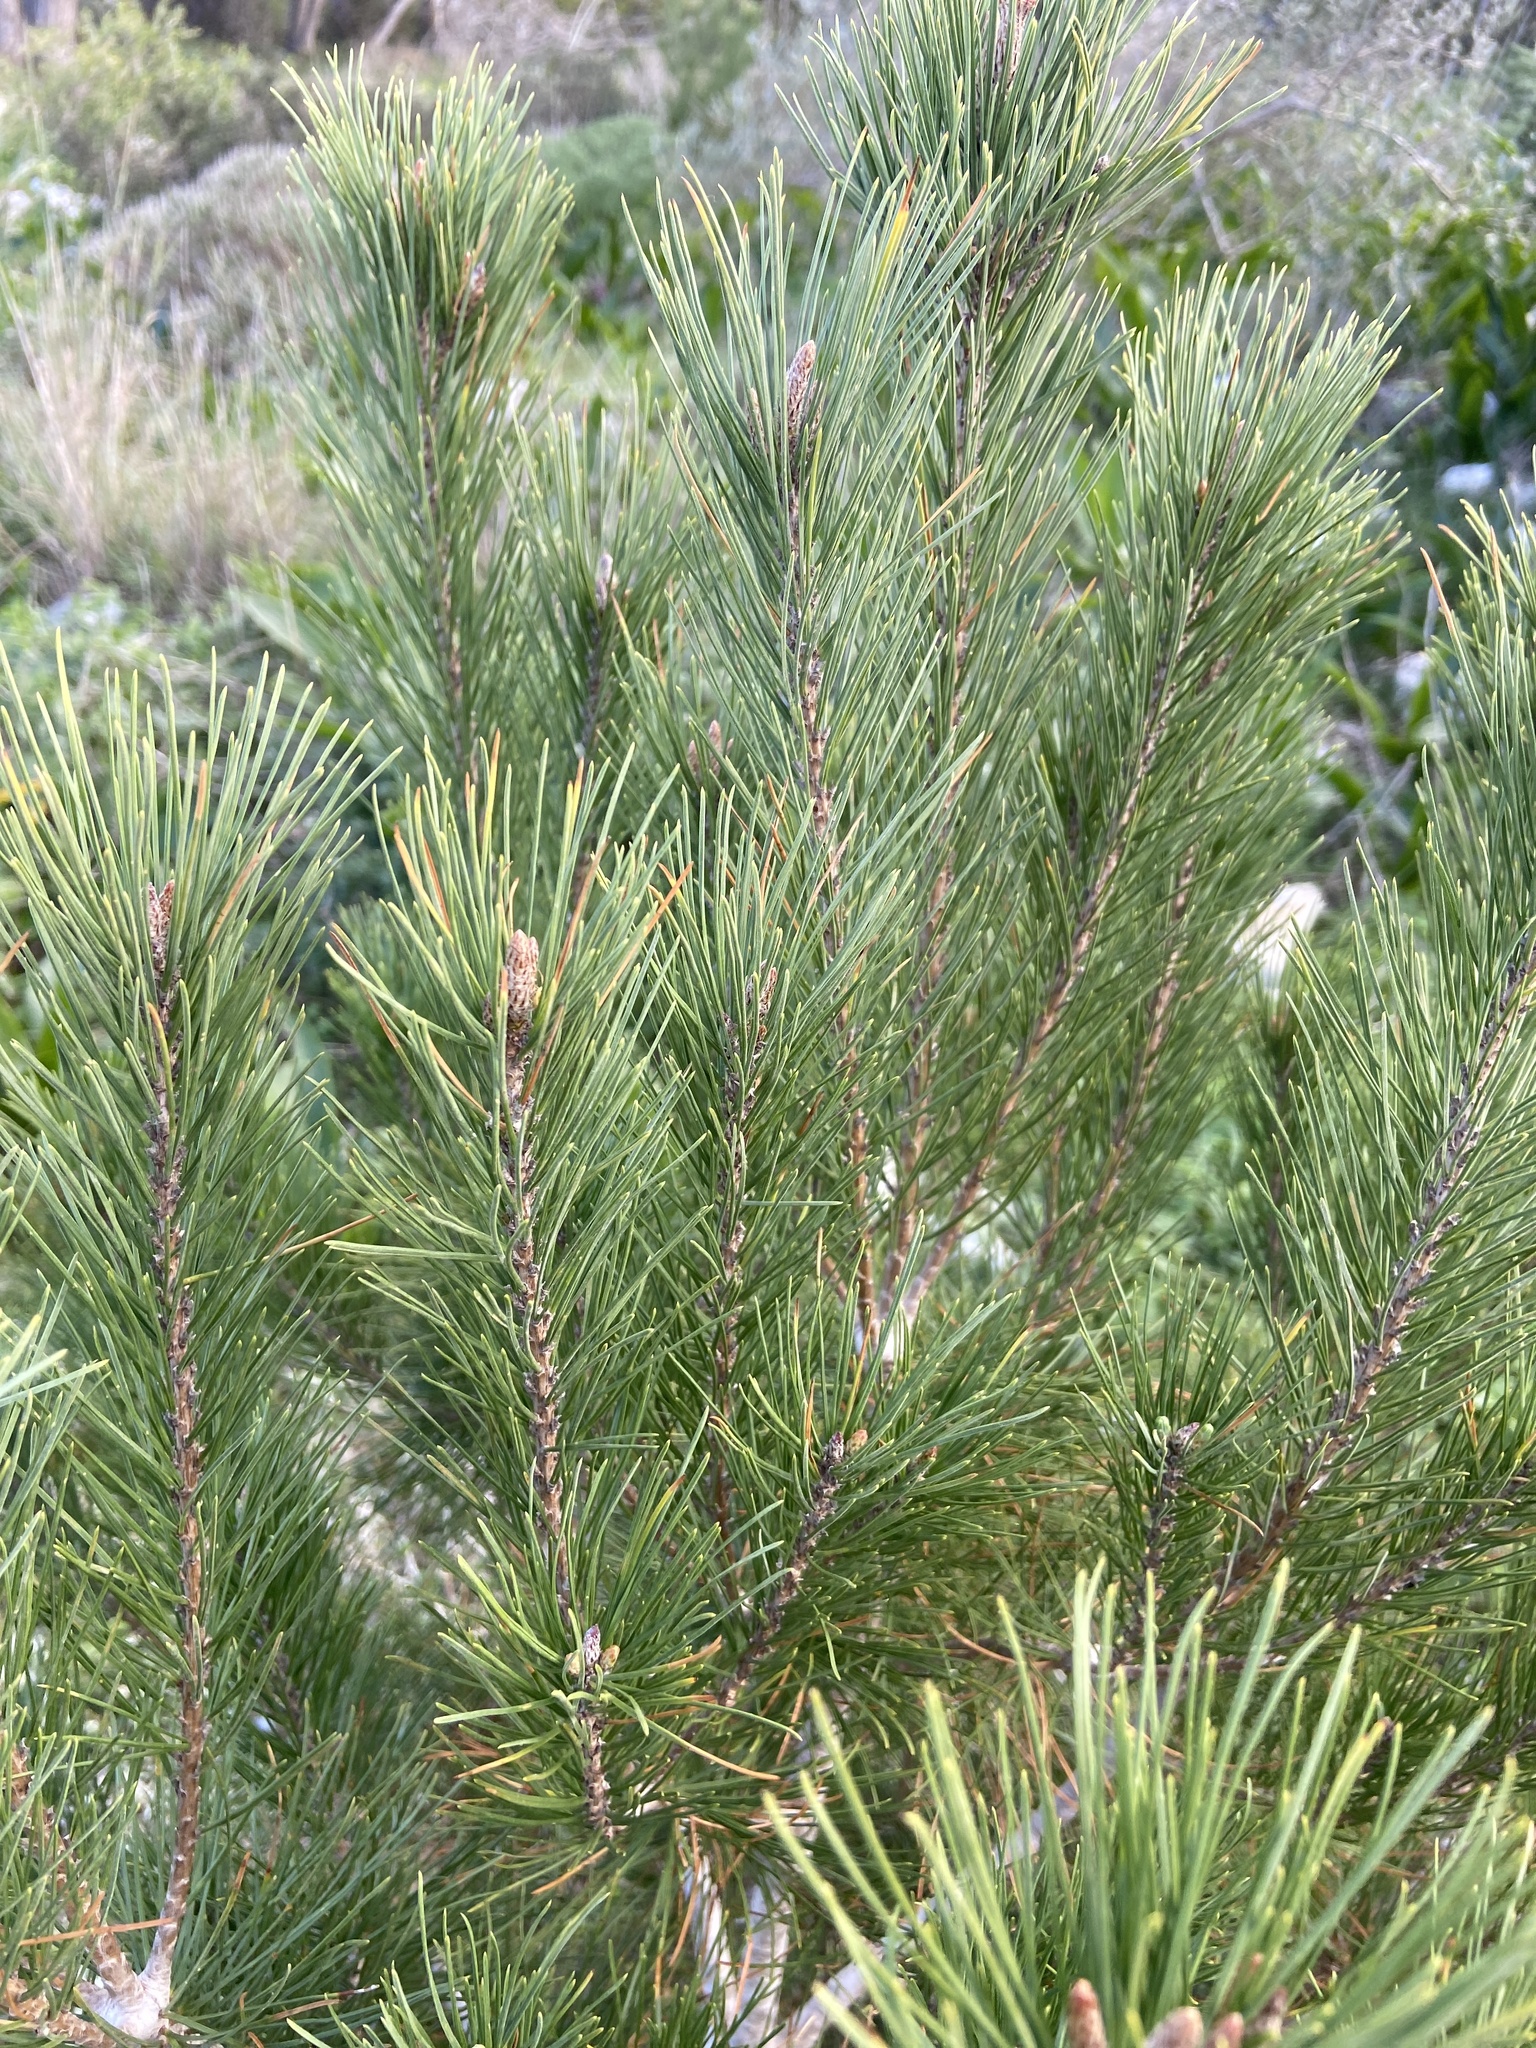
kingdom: Plantae
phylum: Tracheophyta
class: Pinopsida
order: Pinales
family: Pinaceae
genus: Pinus
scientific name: Pinus halepensis
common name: Aleppo pine
